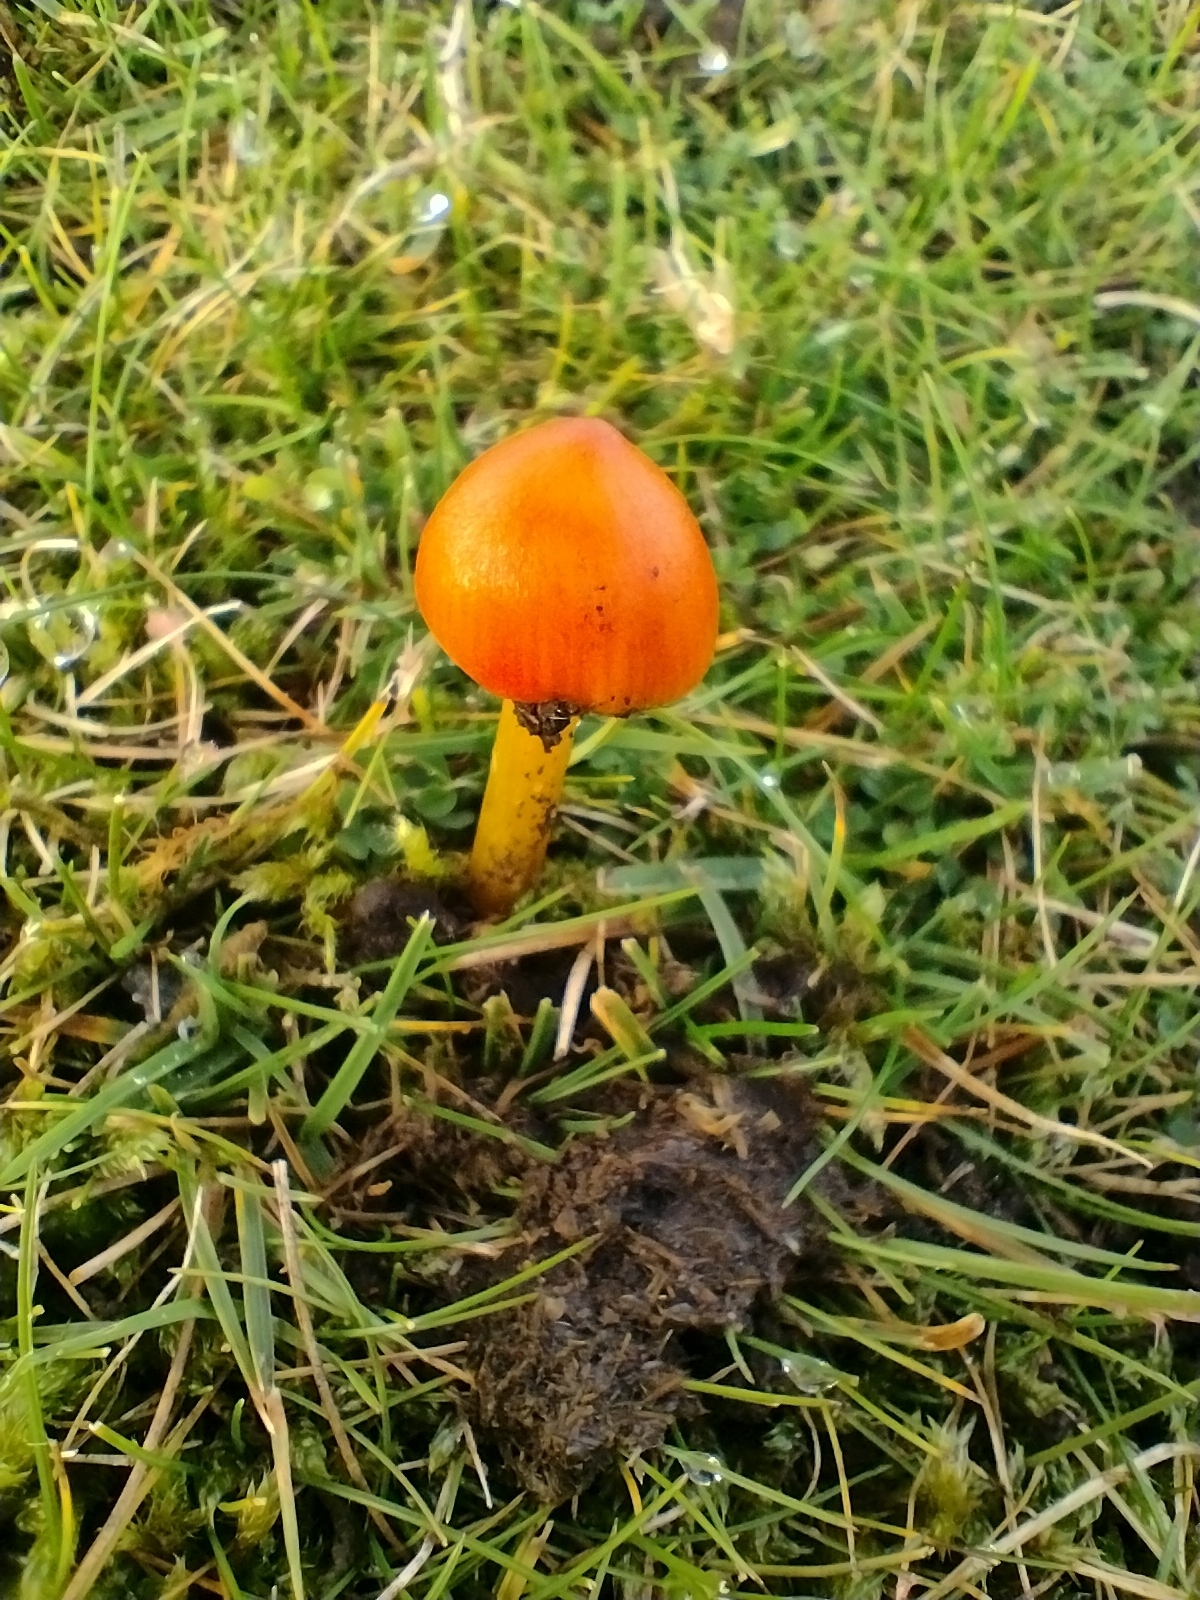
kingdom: Fungi
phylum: Basidiomycota
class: Agaricomycetes
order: Agaricales
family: Hygrophoraceae
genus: Hygrocybe
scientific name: Hygrocybe conica
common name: Blackening wax-cap
